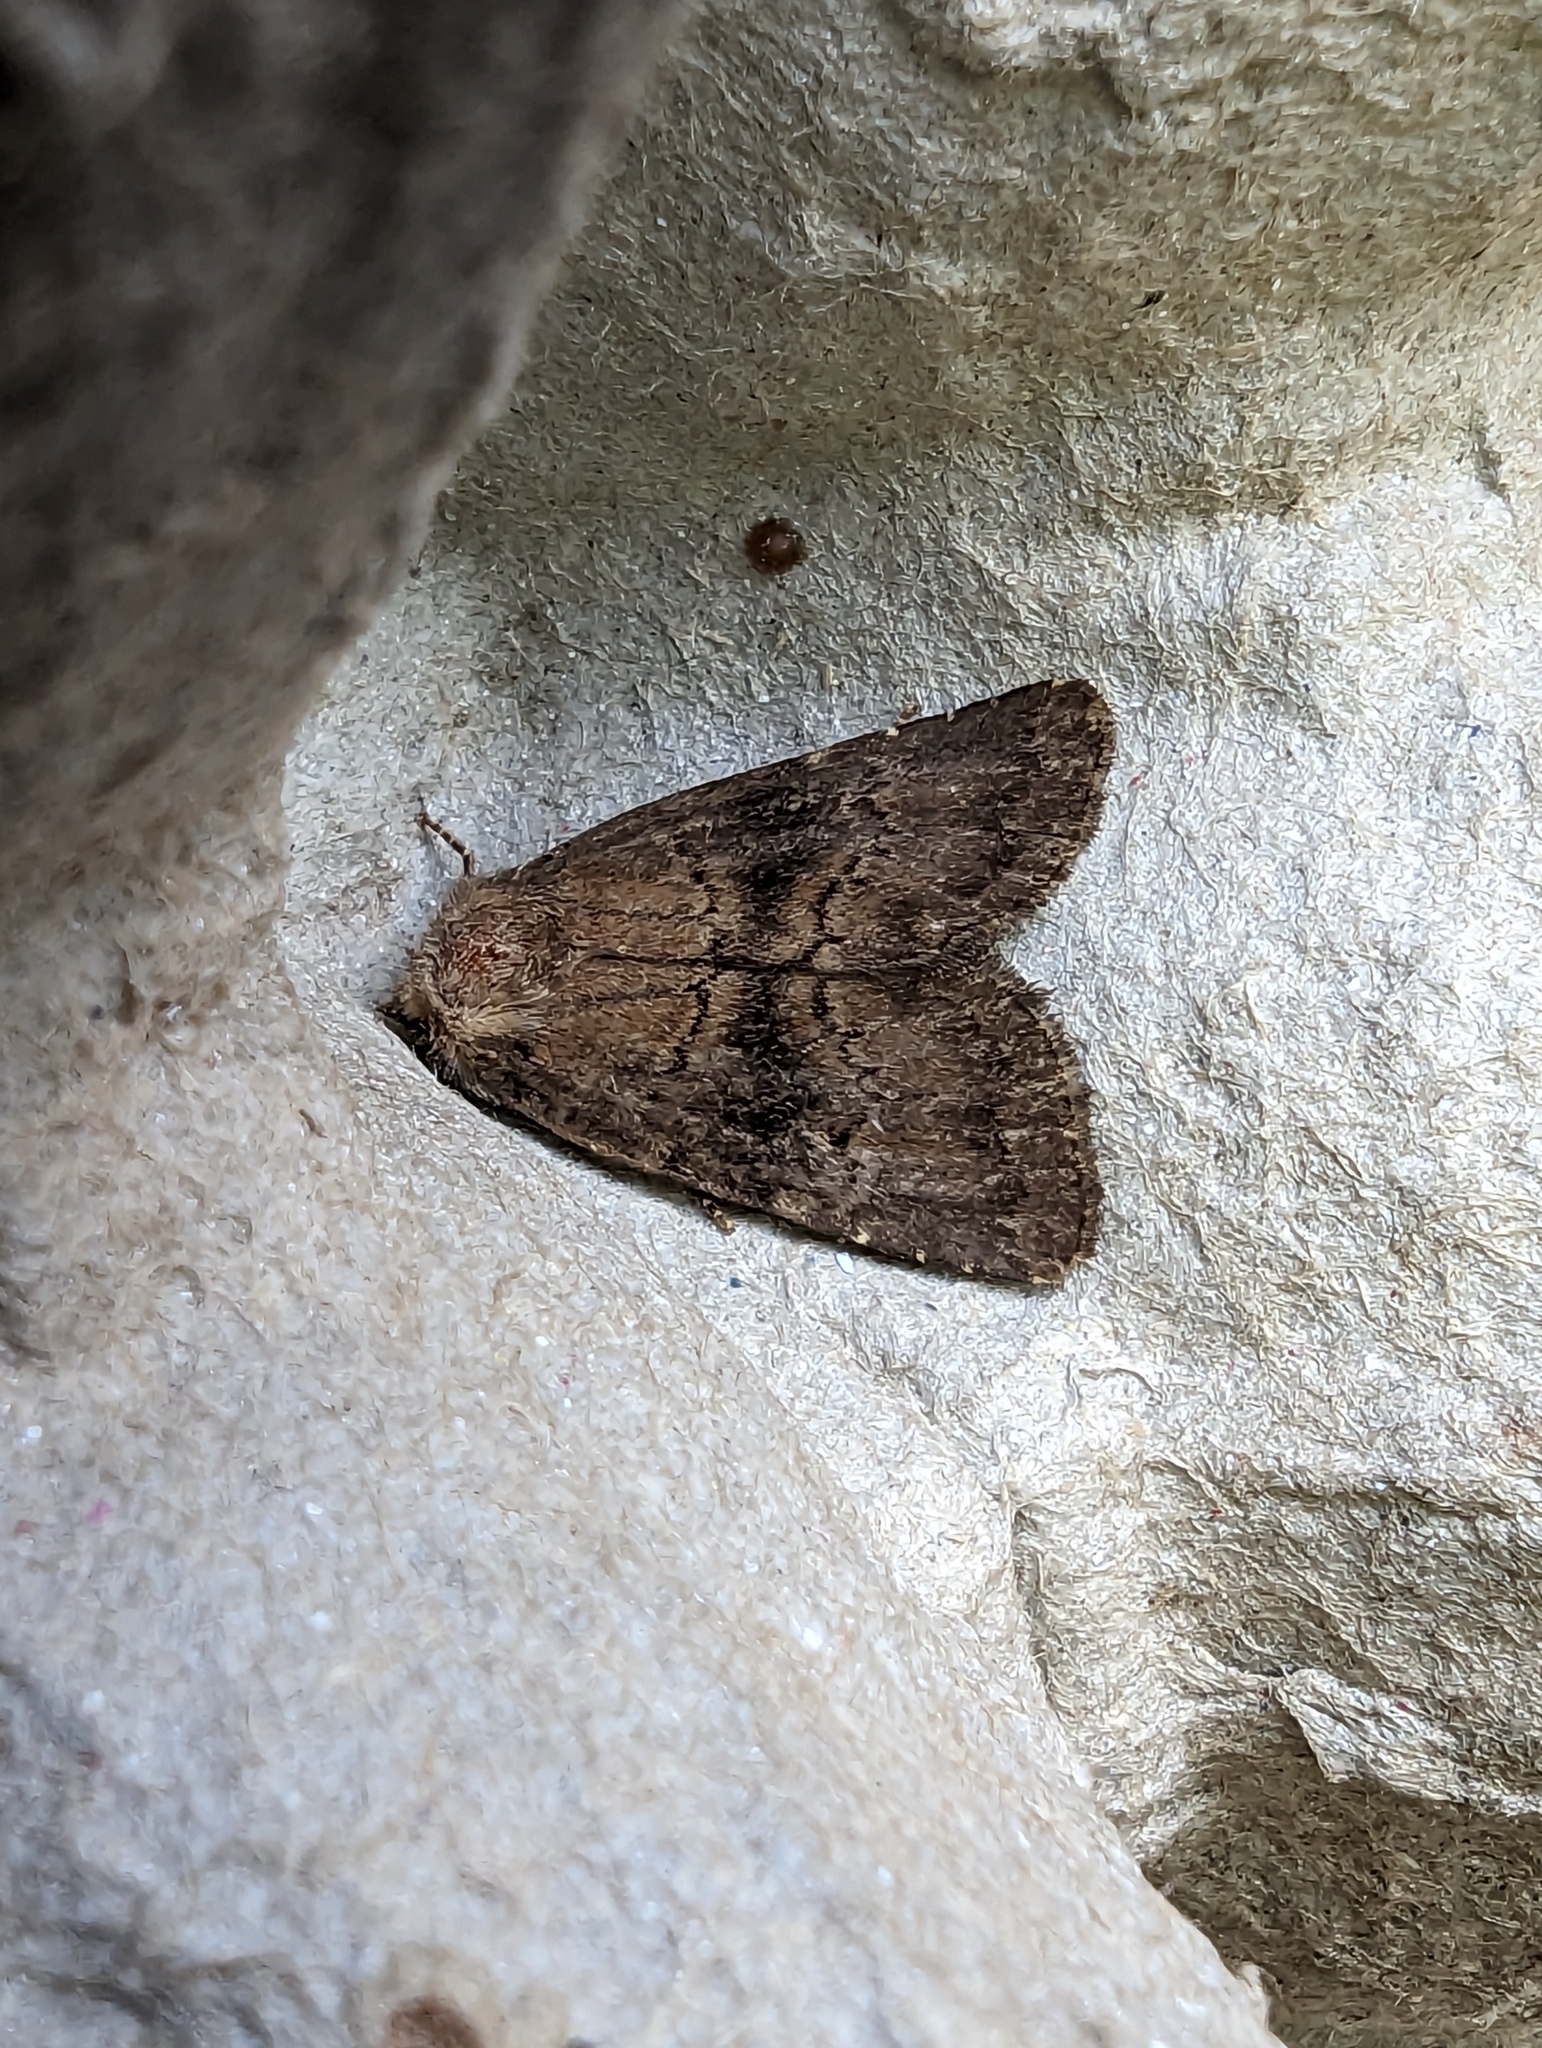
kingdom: Animalia
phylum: Arthropoda
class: Insecta
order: Lepidoptera
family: Noctuidae
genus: Charanyca
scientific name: Charanyca ferruginea
